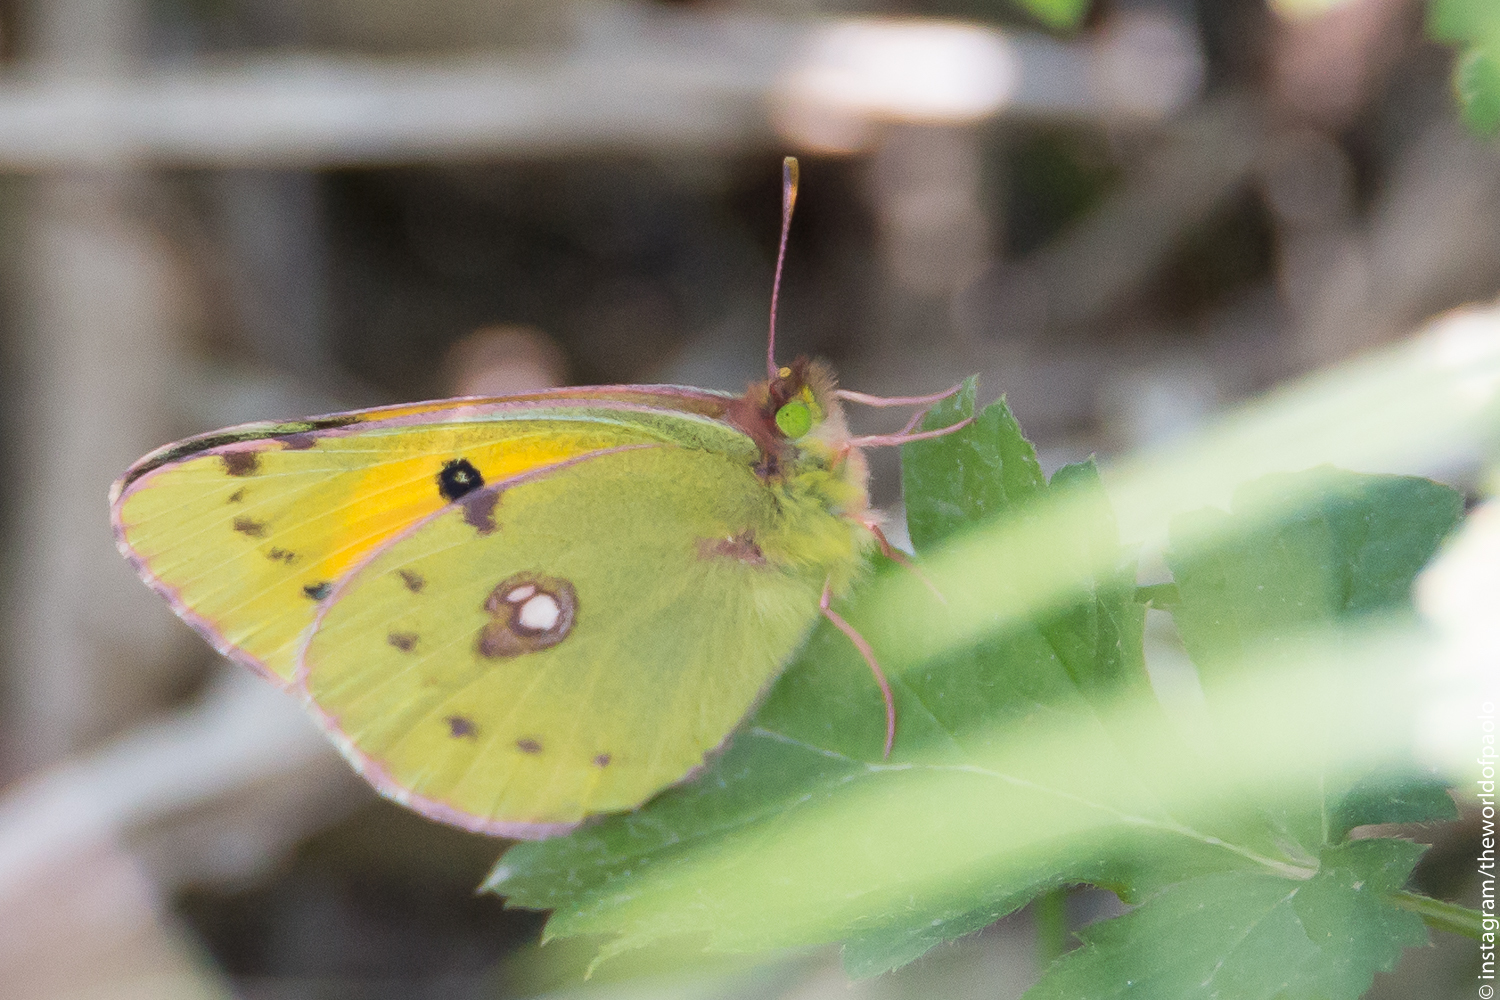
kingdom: Animalia
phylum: Arthropoda
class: Insecta
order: Lepidoptera
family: Pieridae
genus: Colias
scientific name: Colias croceus
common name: Clouded yellow
